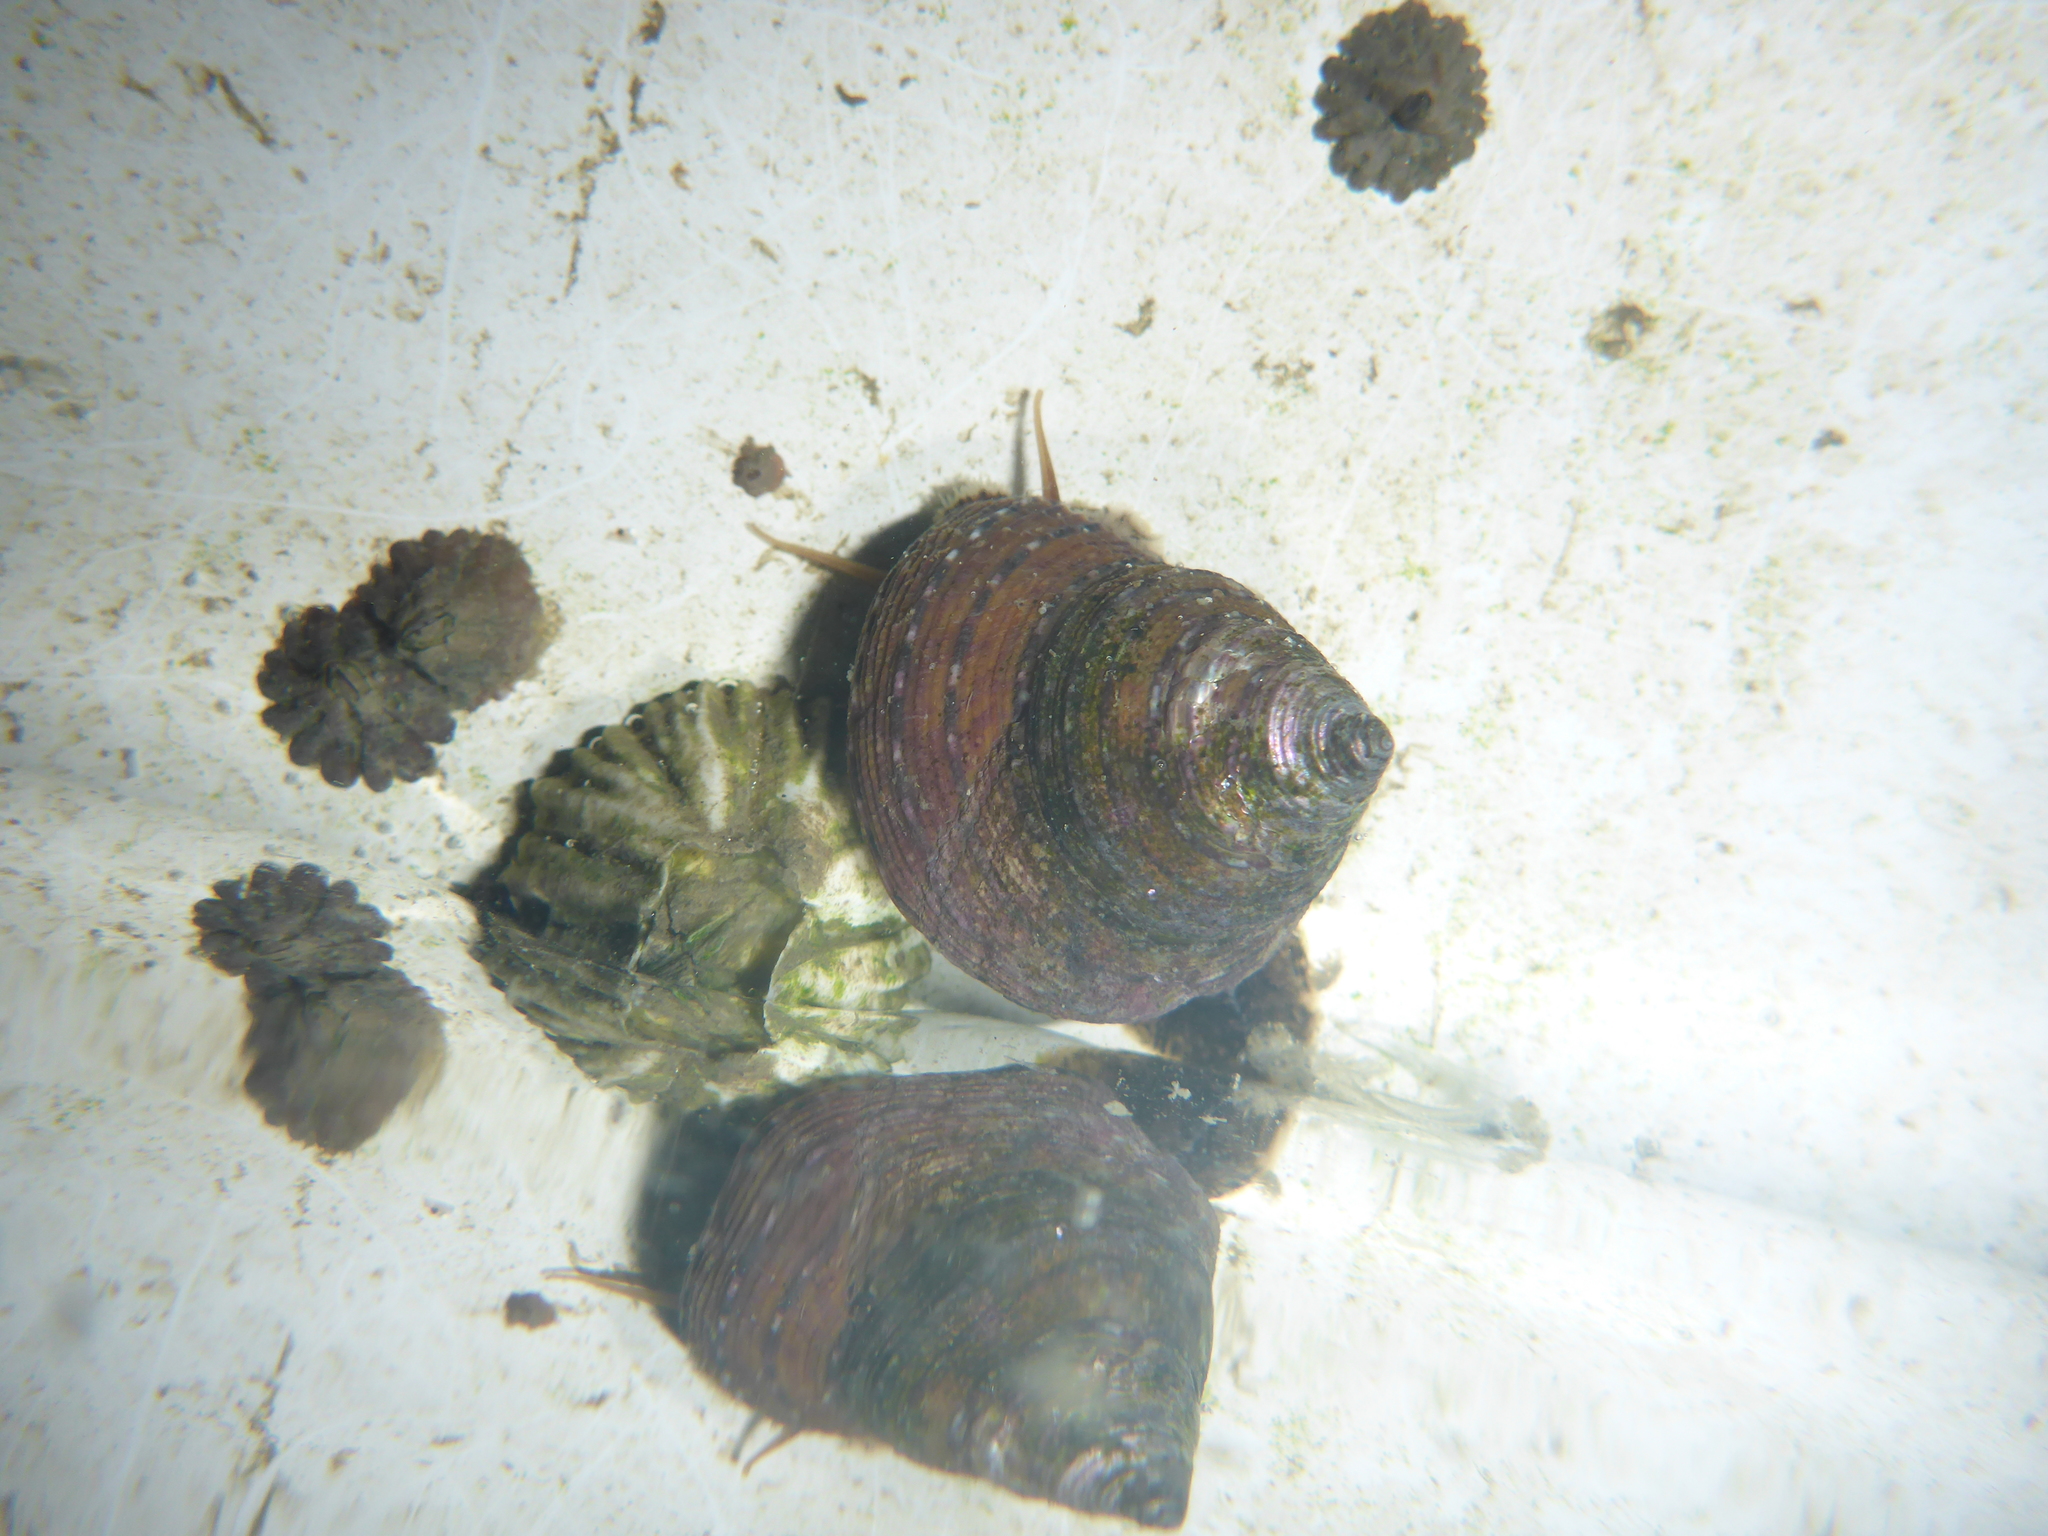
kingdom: Animalia
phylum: Mollusca
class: Gastropoda
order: Trochida
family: Calliostomatidae
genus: Calliostoma
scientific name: Calliostoma tricolor
